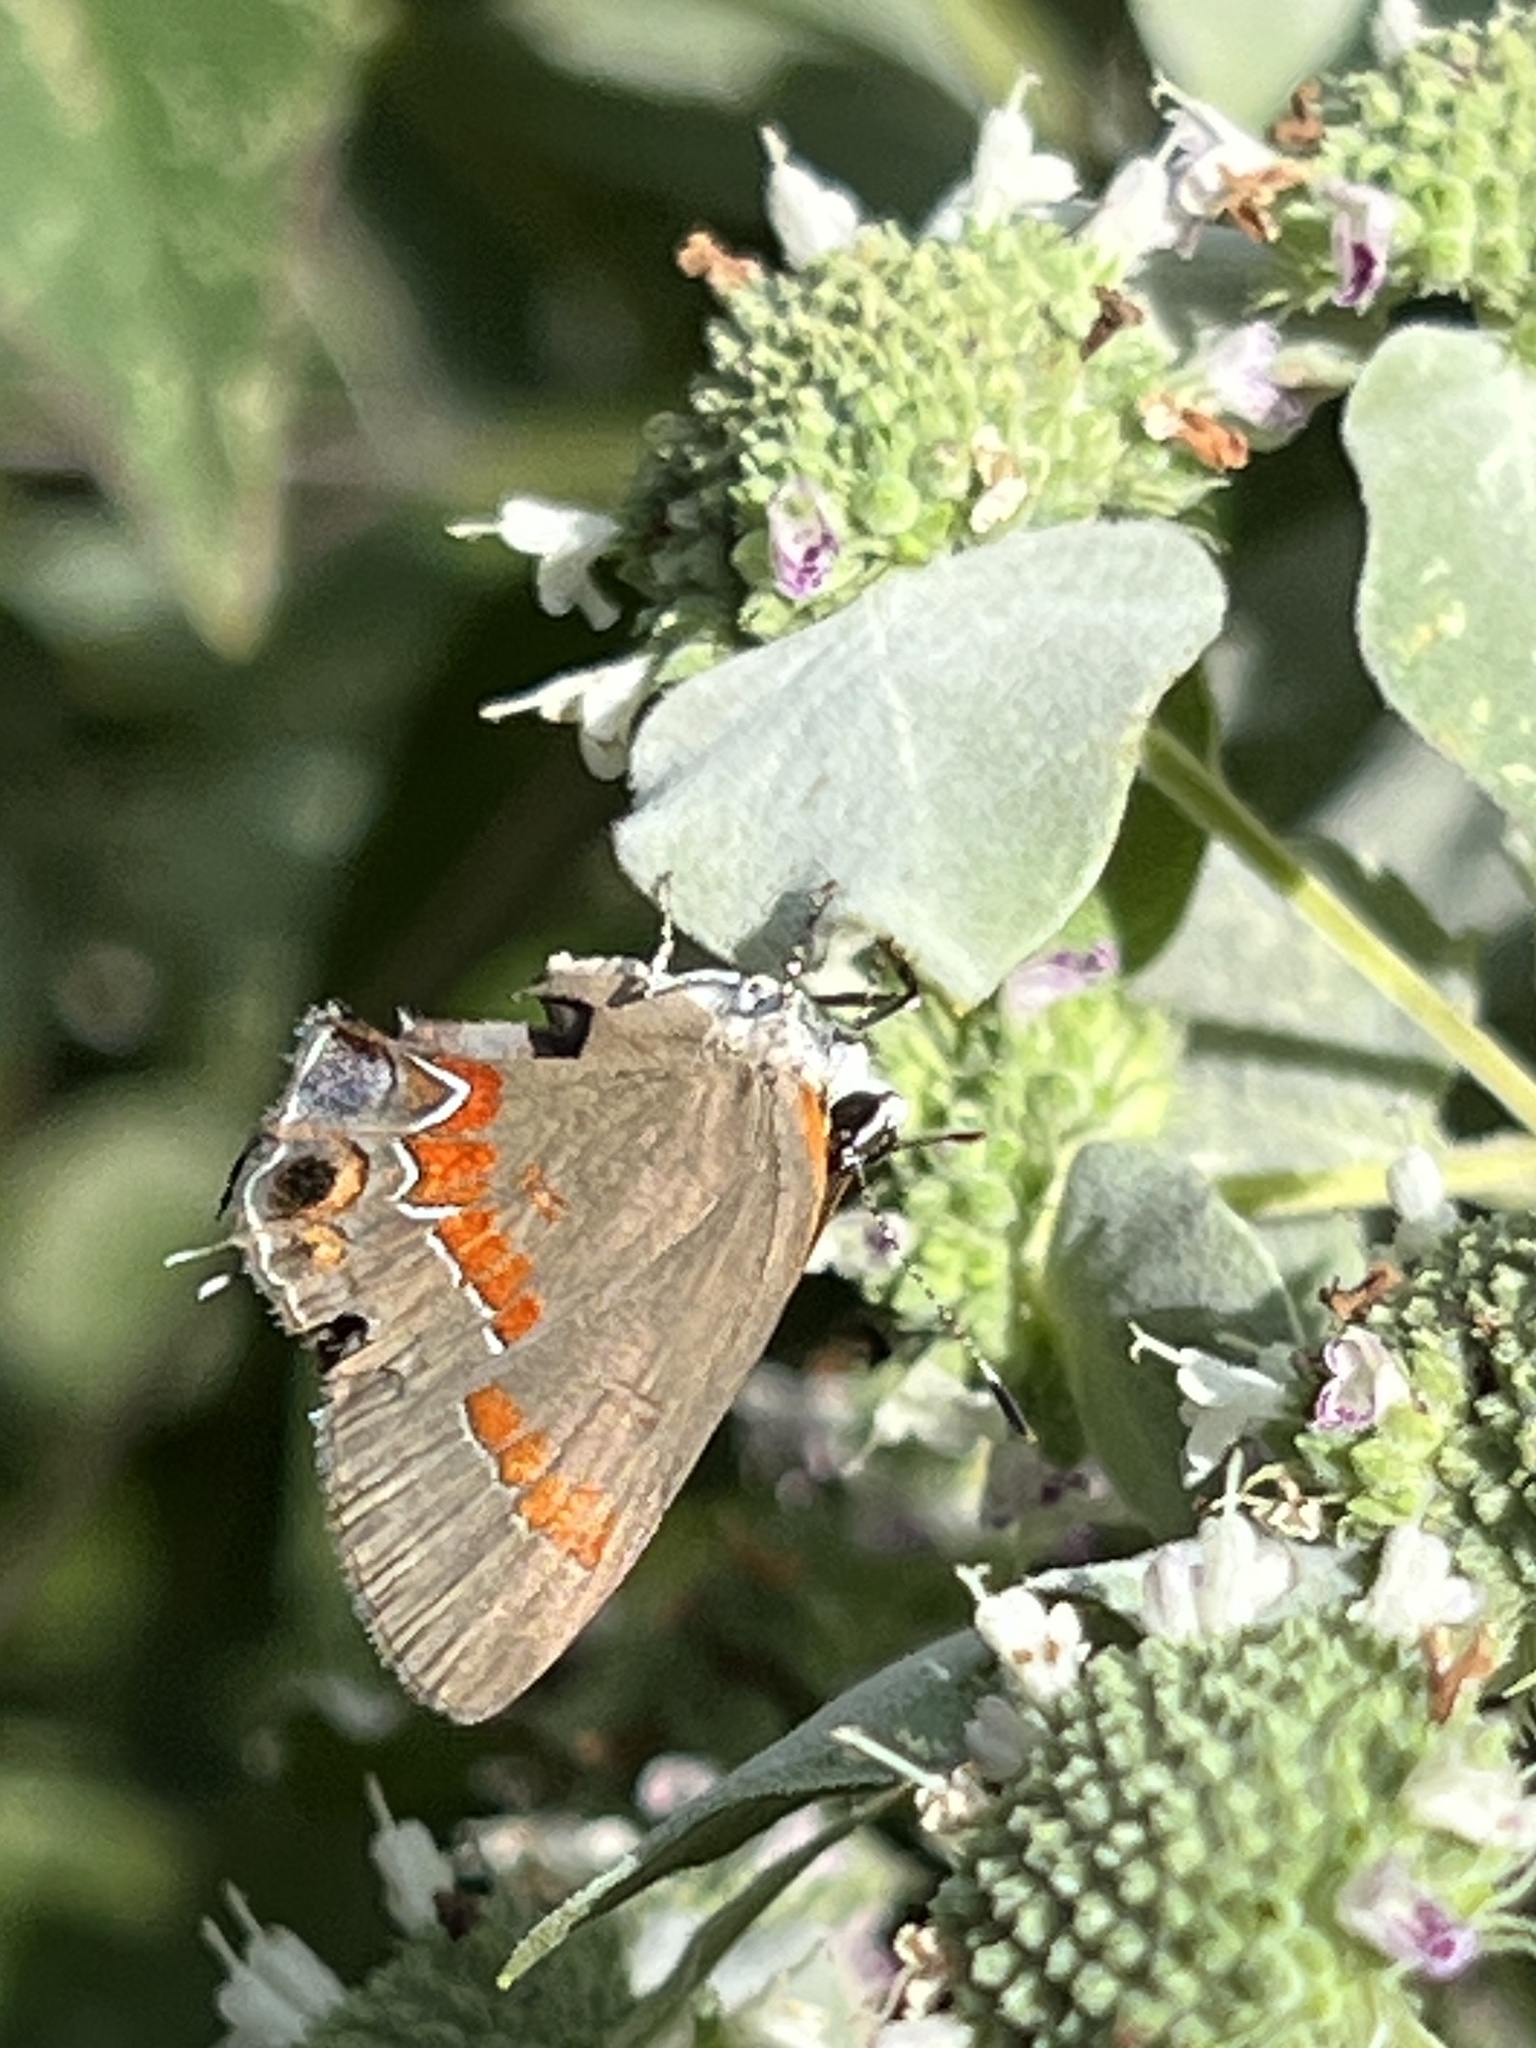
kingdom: Animalia
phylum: Arthropoda
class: Insecta
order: Lepidoptera
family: Lycaenidae
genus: Calycopis
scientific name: Calycopis cecrops
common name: Red-banded hairstreak
